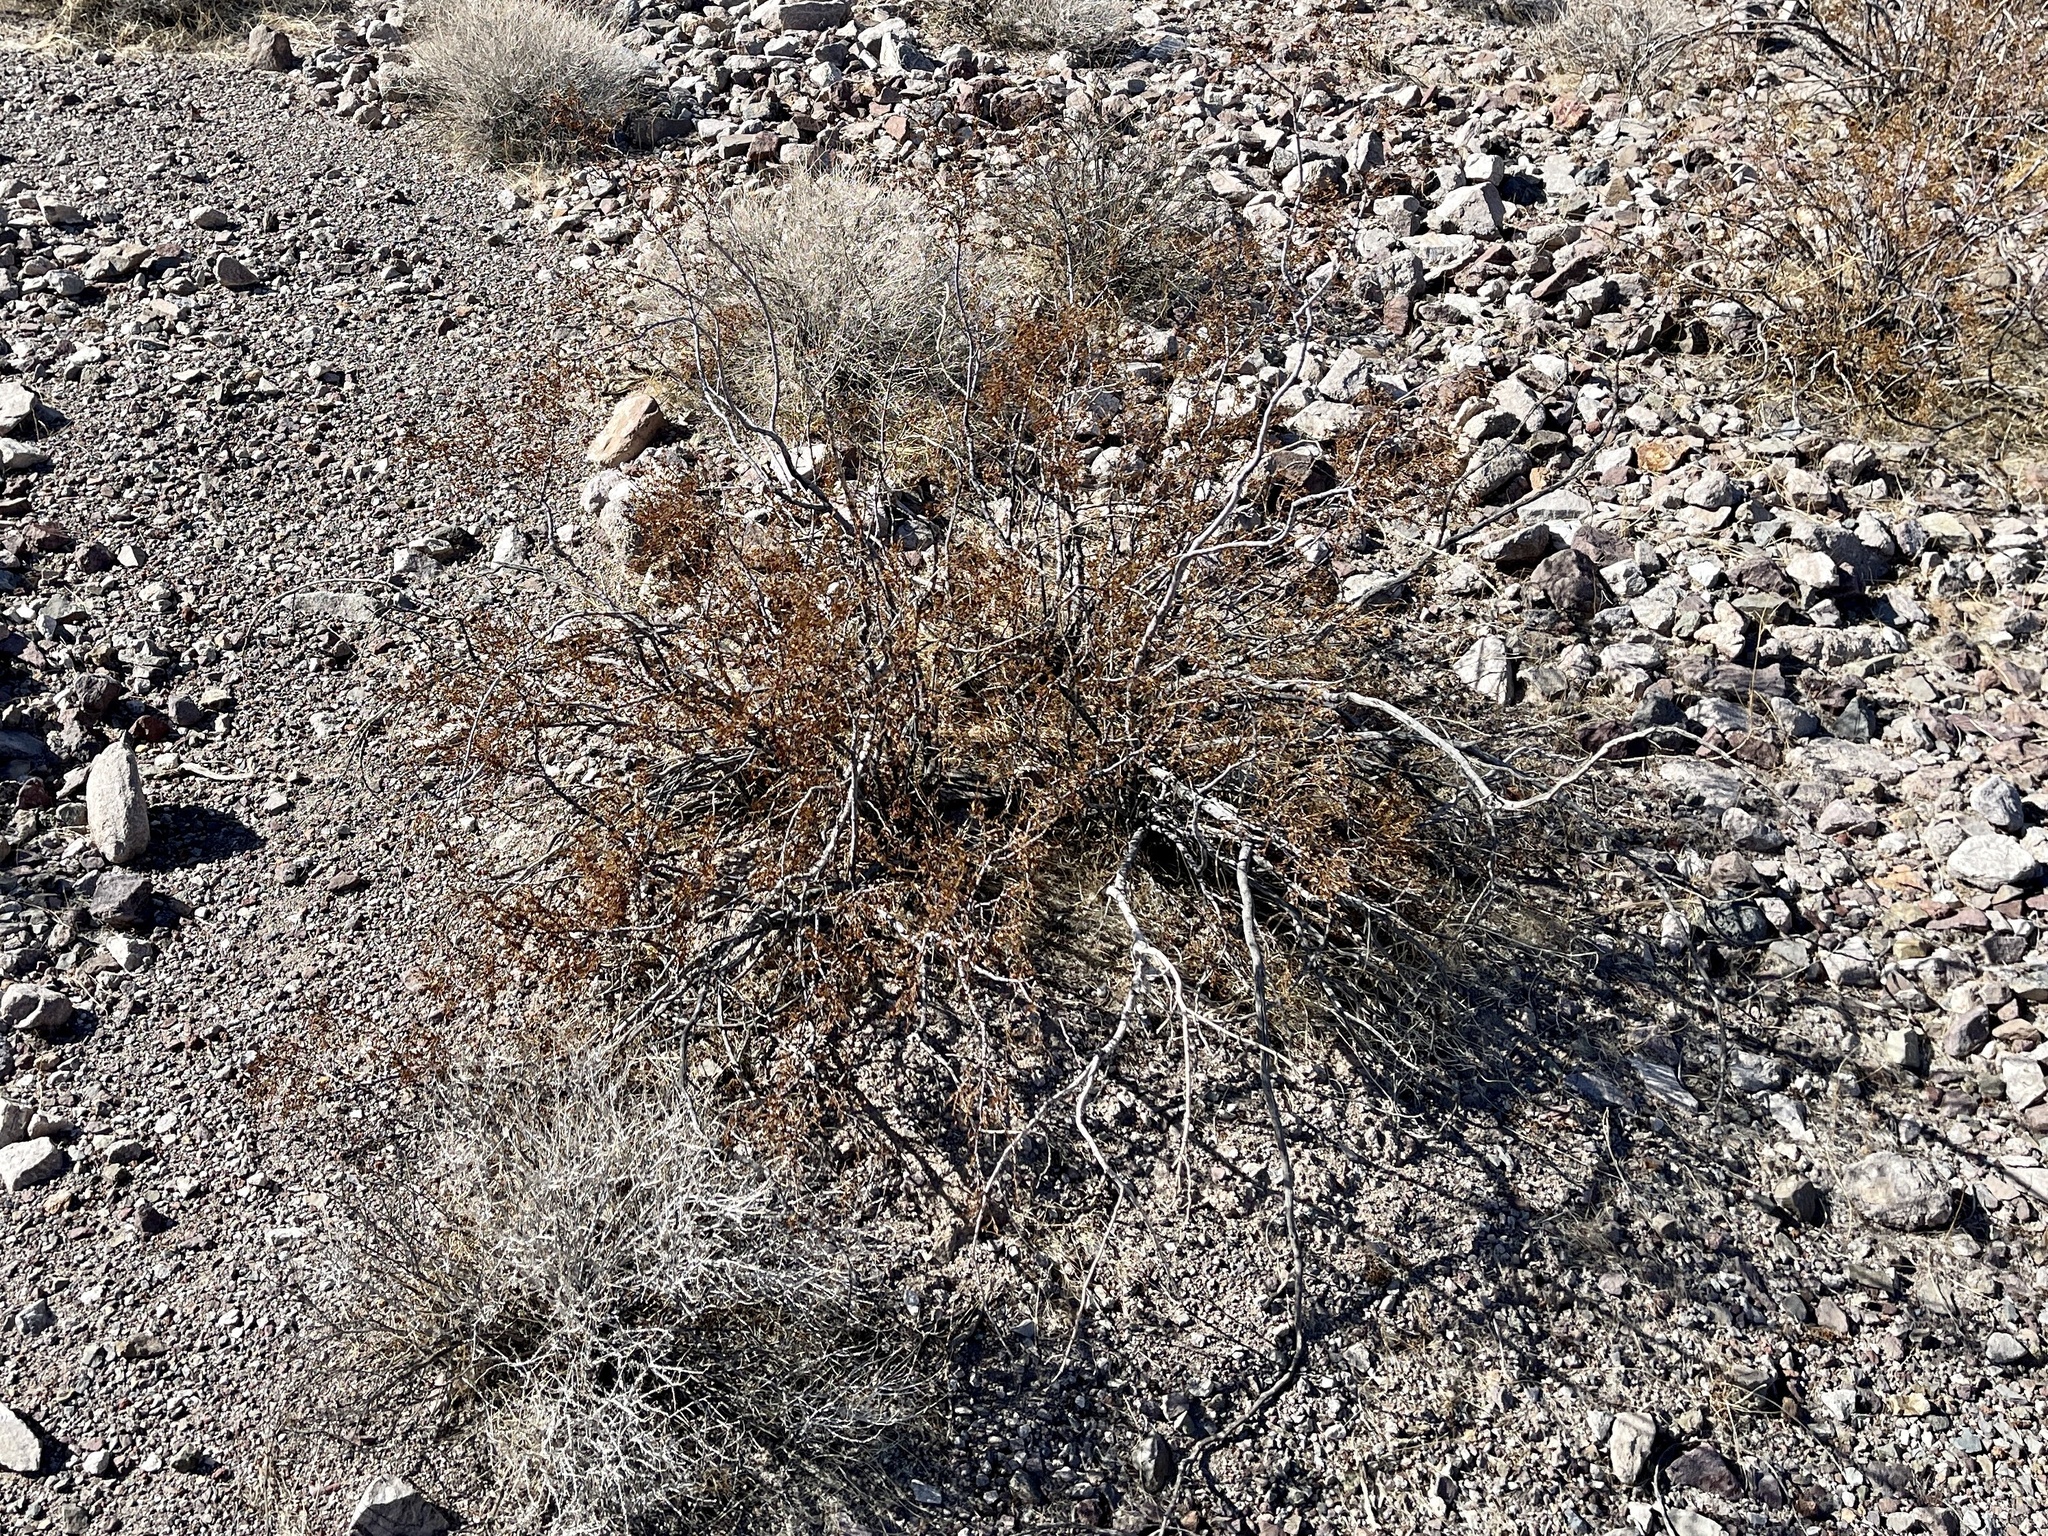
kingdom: Plantae
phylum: Tracheophyta
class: Magnoliopsida
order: Zygophyllales
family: Zygophyllaceae
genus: Larrea
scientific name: Larrea tridentata
